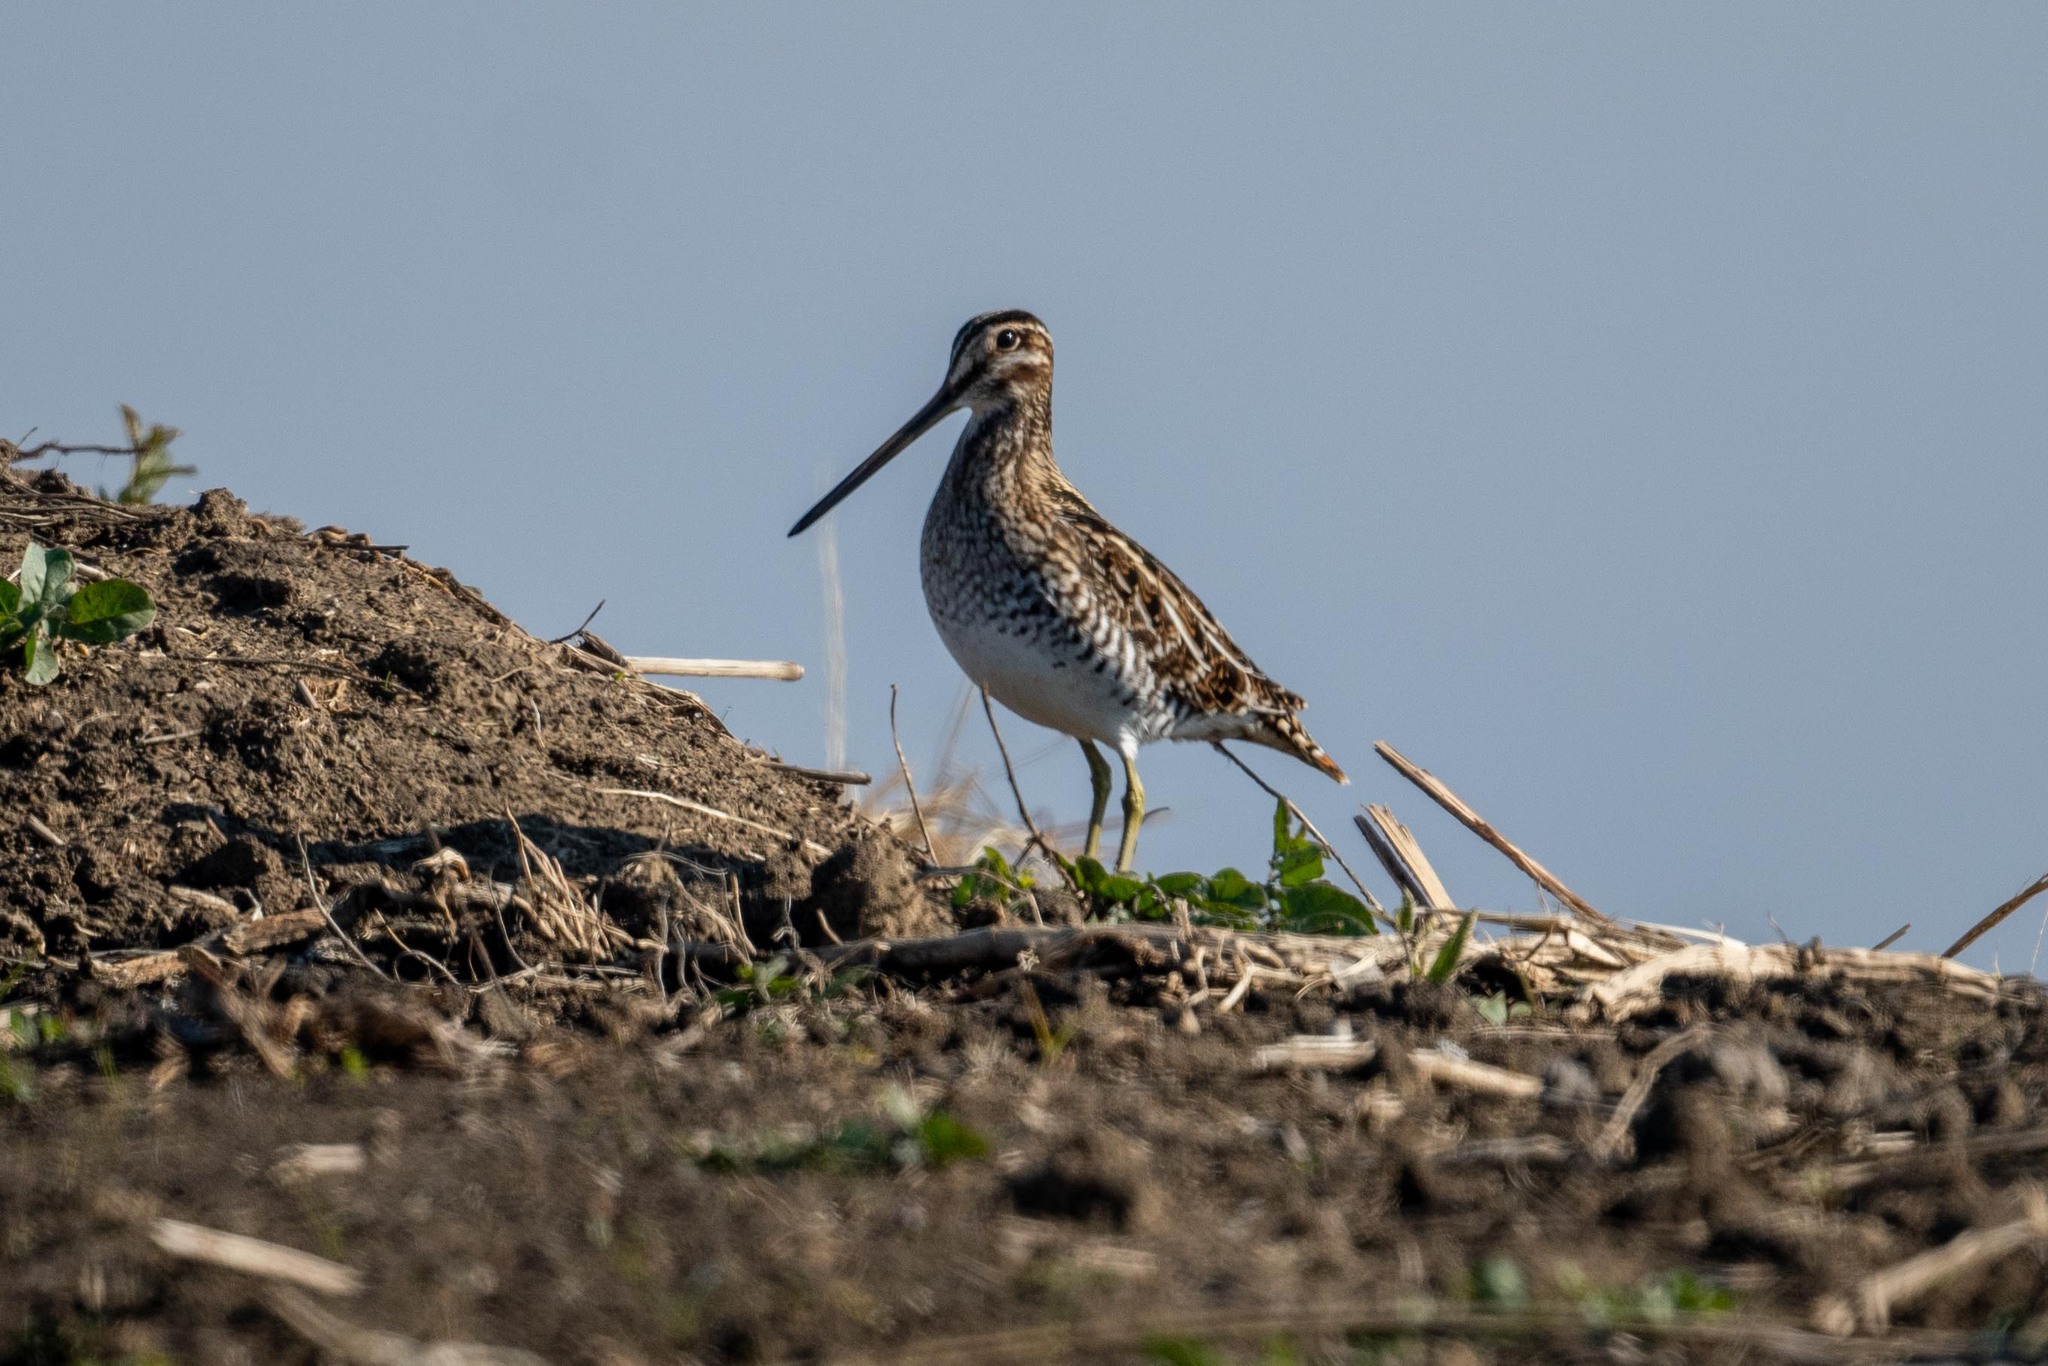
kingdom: Animalia
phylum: Chordata
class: Aves
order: Charadriiformes
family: Scolopacidae
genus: Gallinago
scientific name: Gallinago delicata
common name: Wilson's snipe
